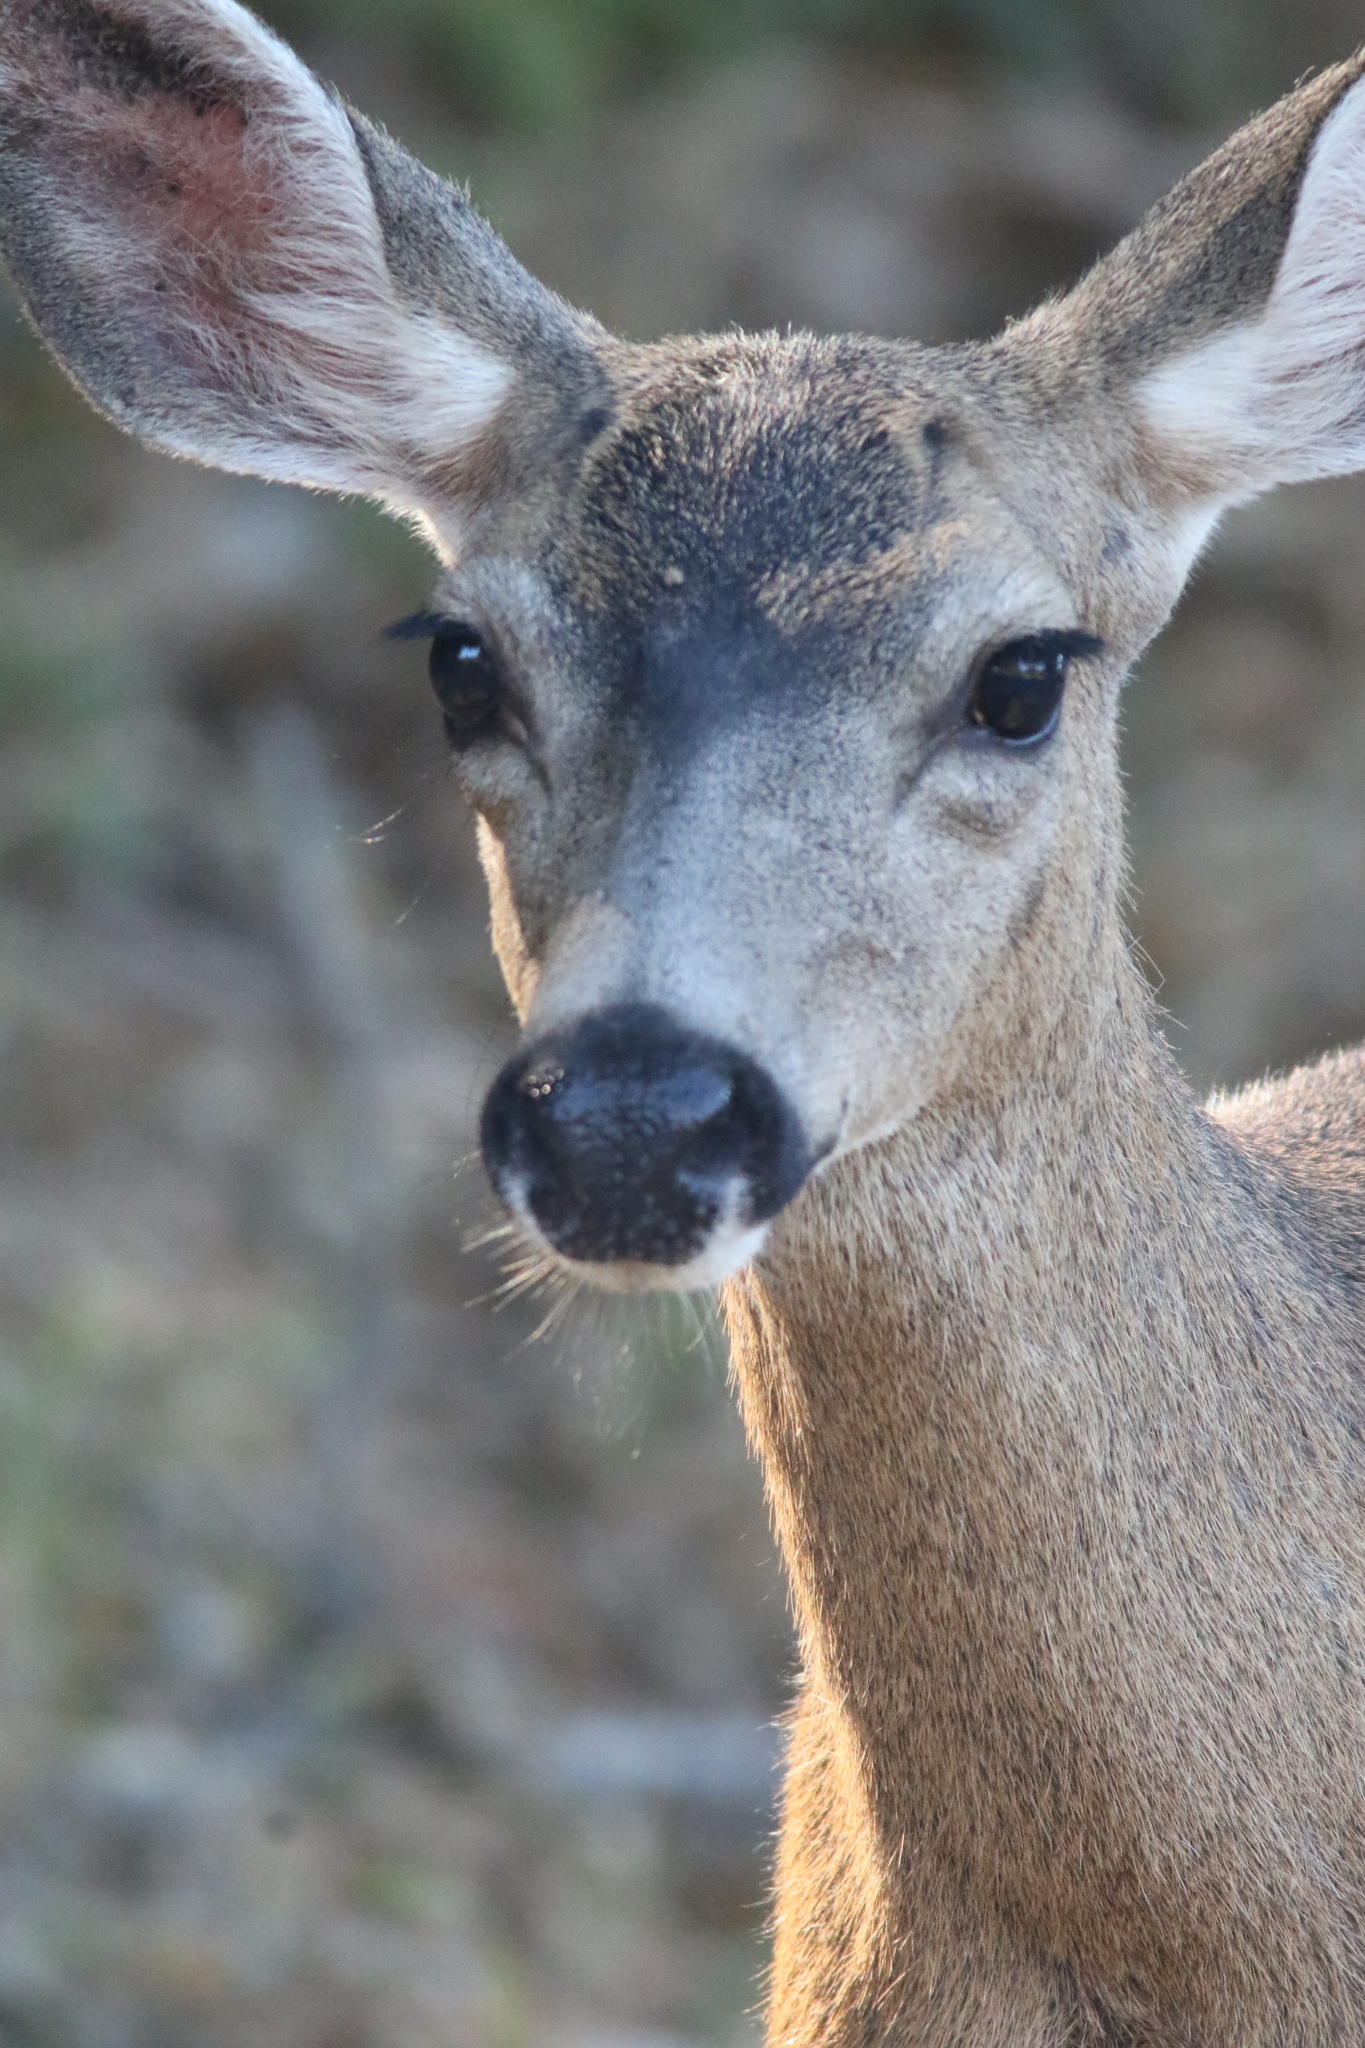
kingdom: Animalia
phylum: Chordata
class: Mammalia
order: Artiodactyla
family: Cervidae
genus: Odocoileus
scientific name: Odocoileus hemionus
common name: Mule deer
